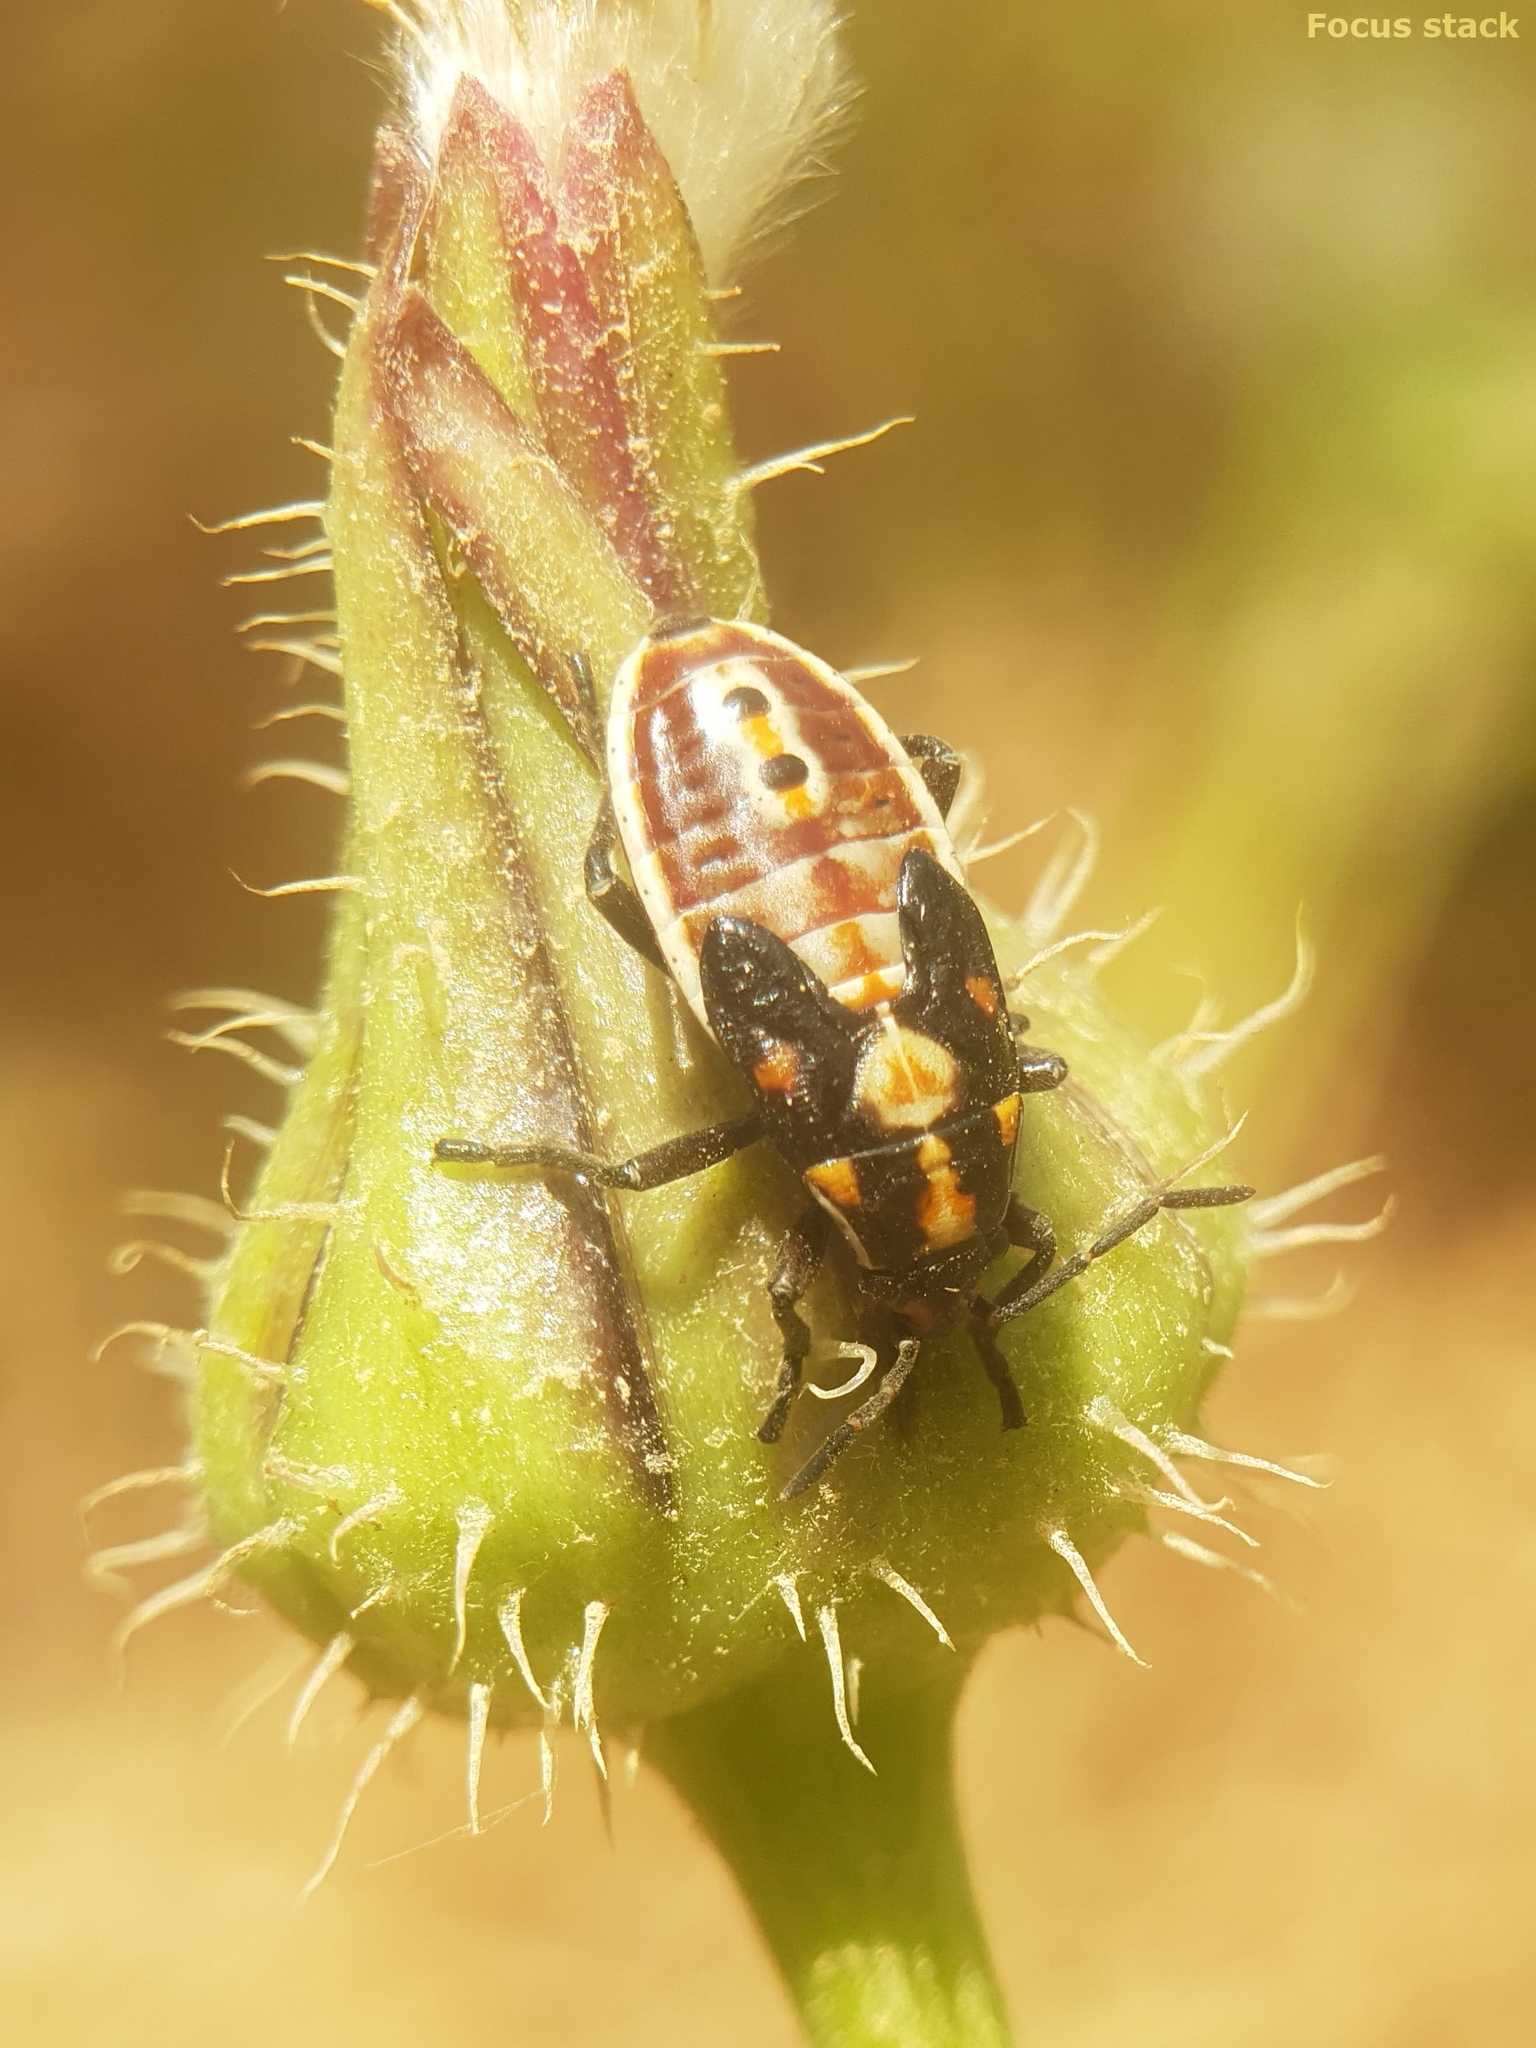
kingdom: Animalia
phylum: Arthropoda
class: Insecta
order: Hemiptera
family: Lygaeidae
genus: Spilostethus
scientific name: Spilostethus pandurus
